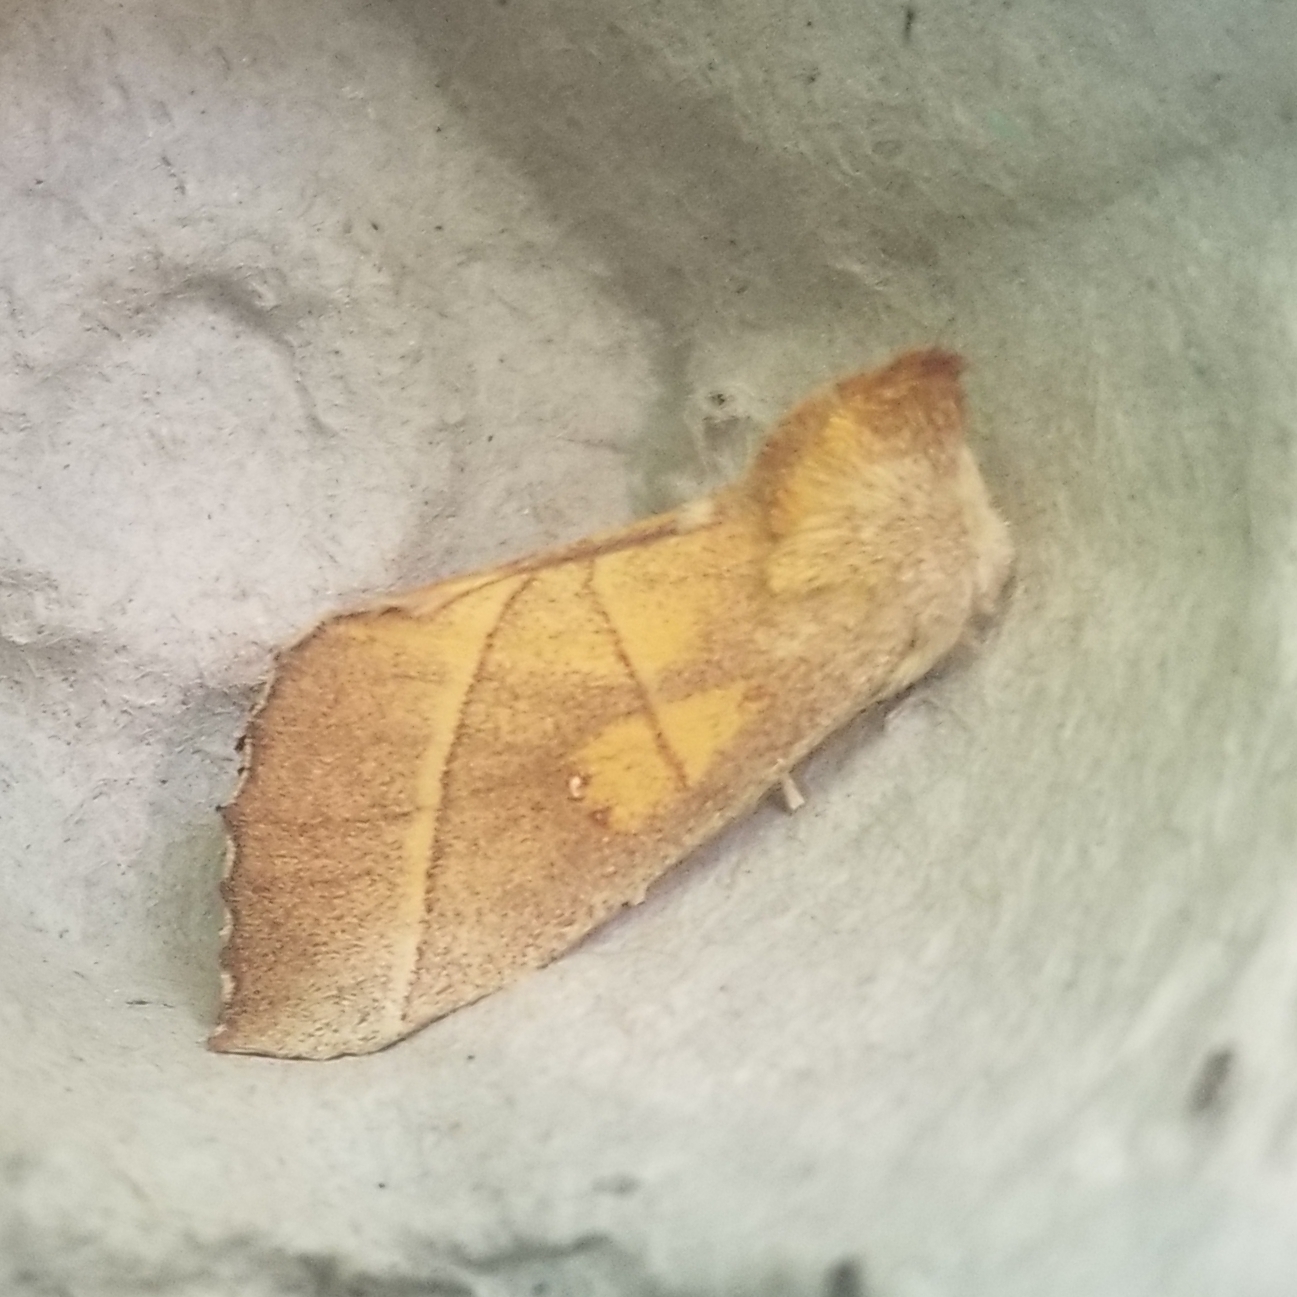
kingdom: Animalia
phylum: Arthropoda
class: Insecta
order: Lepidoptera
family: Notodontidae
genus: Nadata
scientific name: Nadata gibbosa
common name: White-dotted prominent
